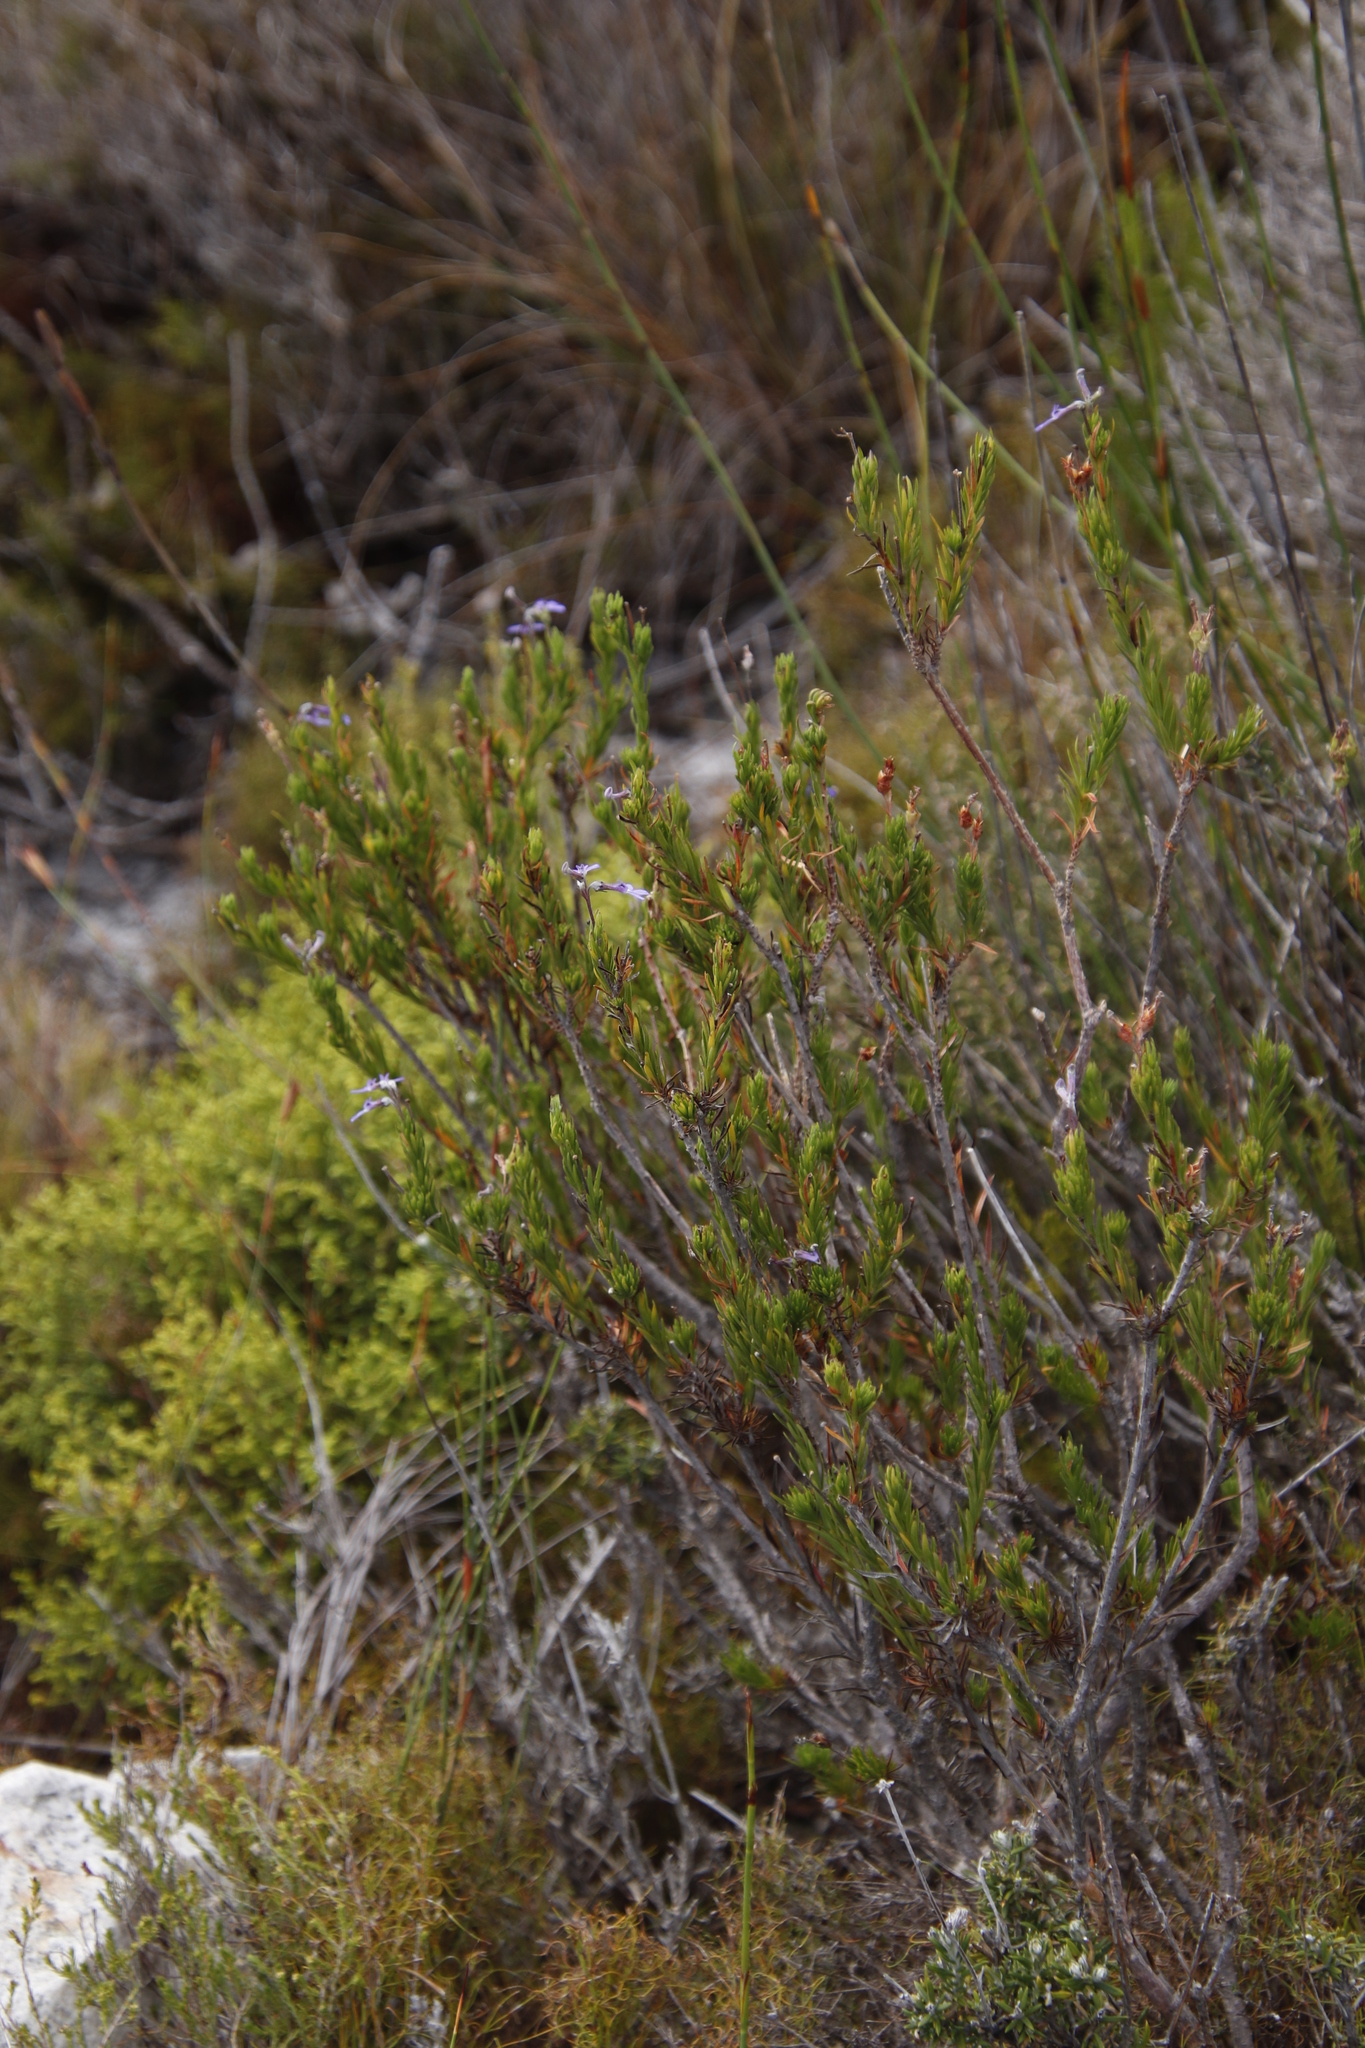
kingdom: Plantae
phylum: Tracheophyta
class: Magnoliopsida
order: Asterales
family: Campanulaceae
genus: Lobelia
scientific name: Lobelia pinifolia
